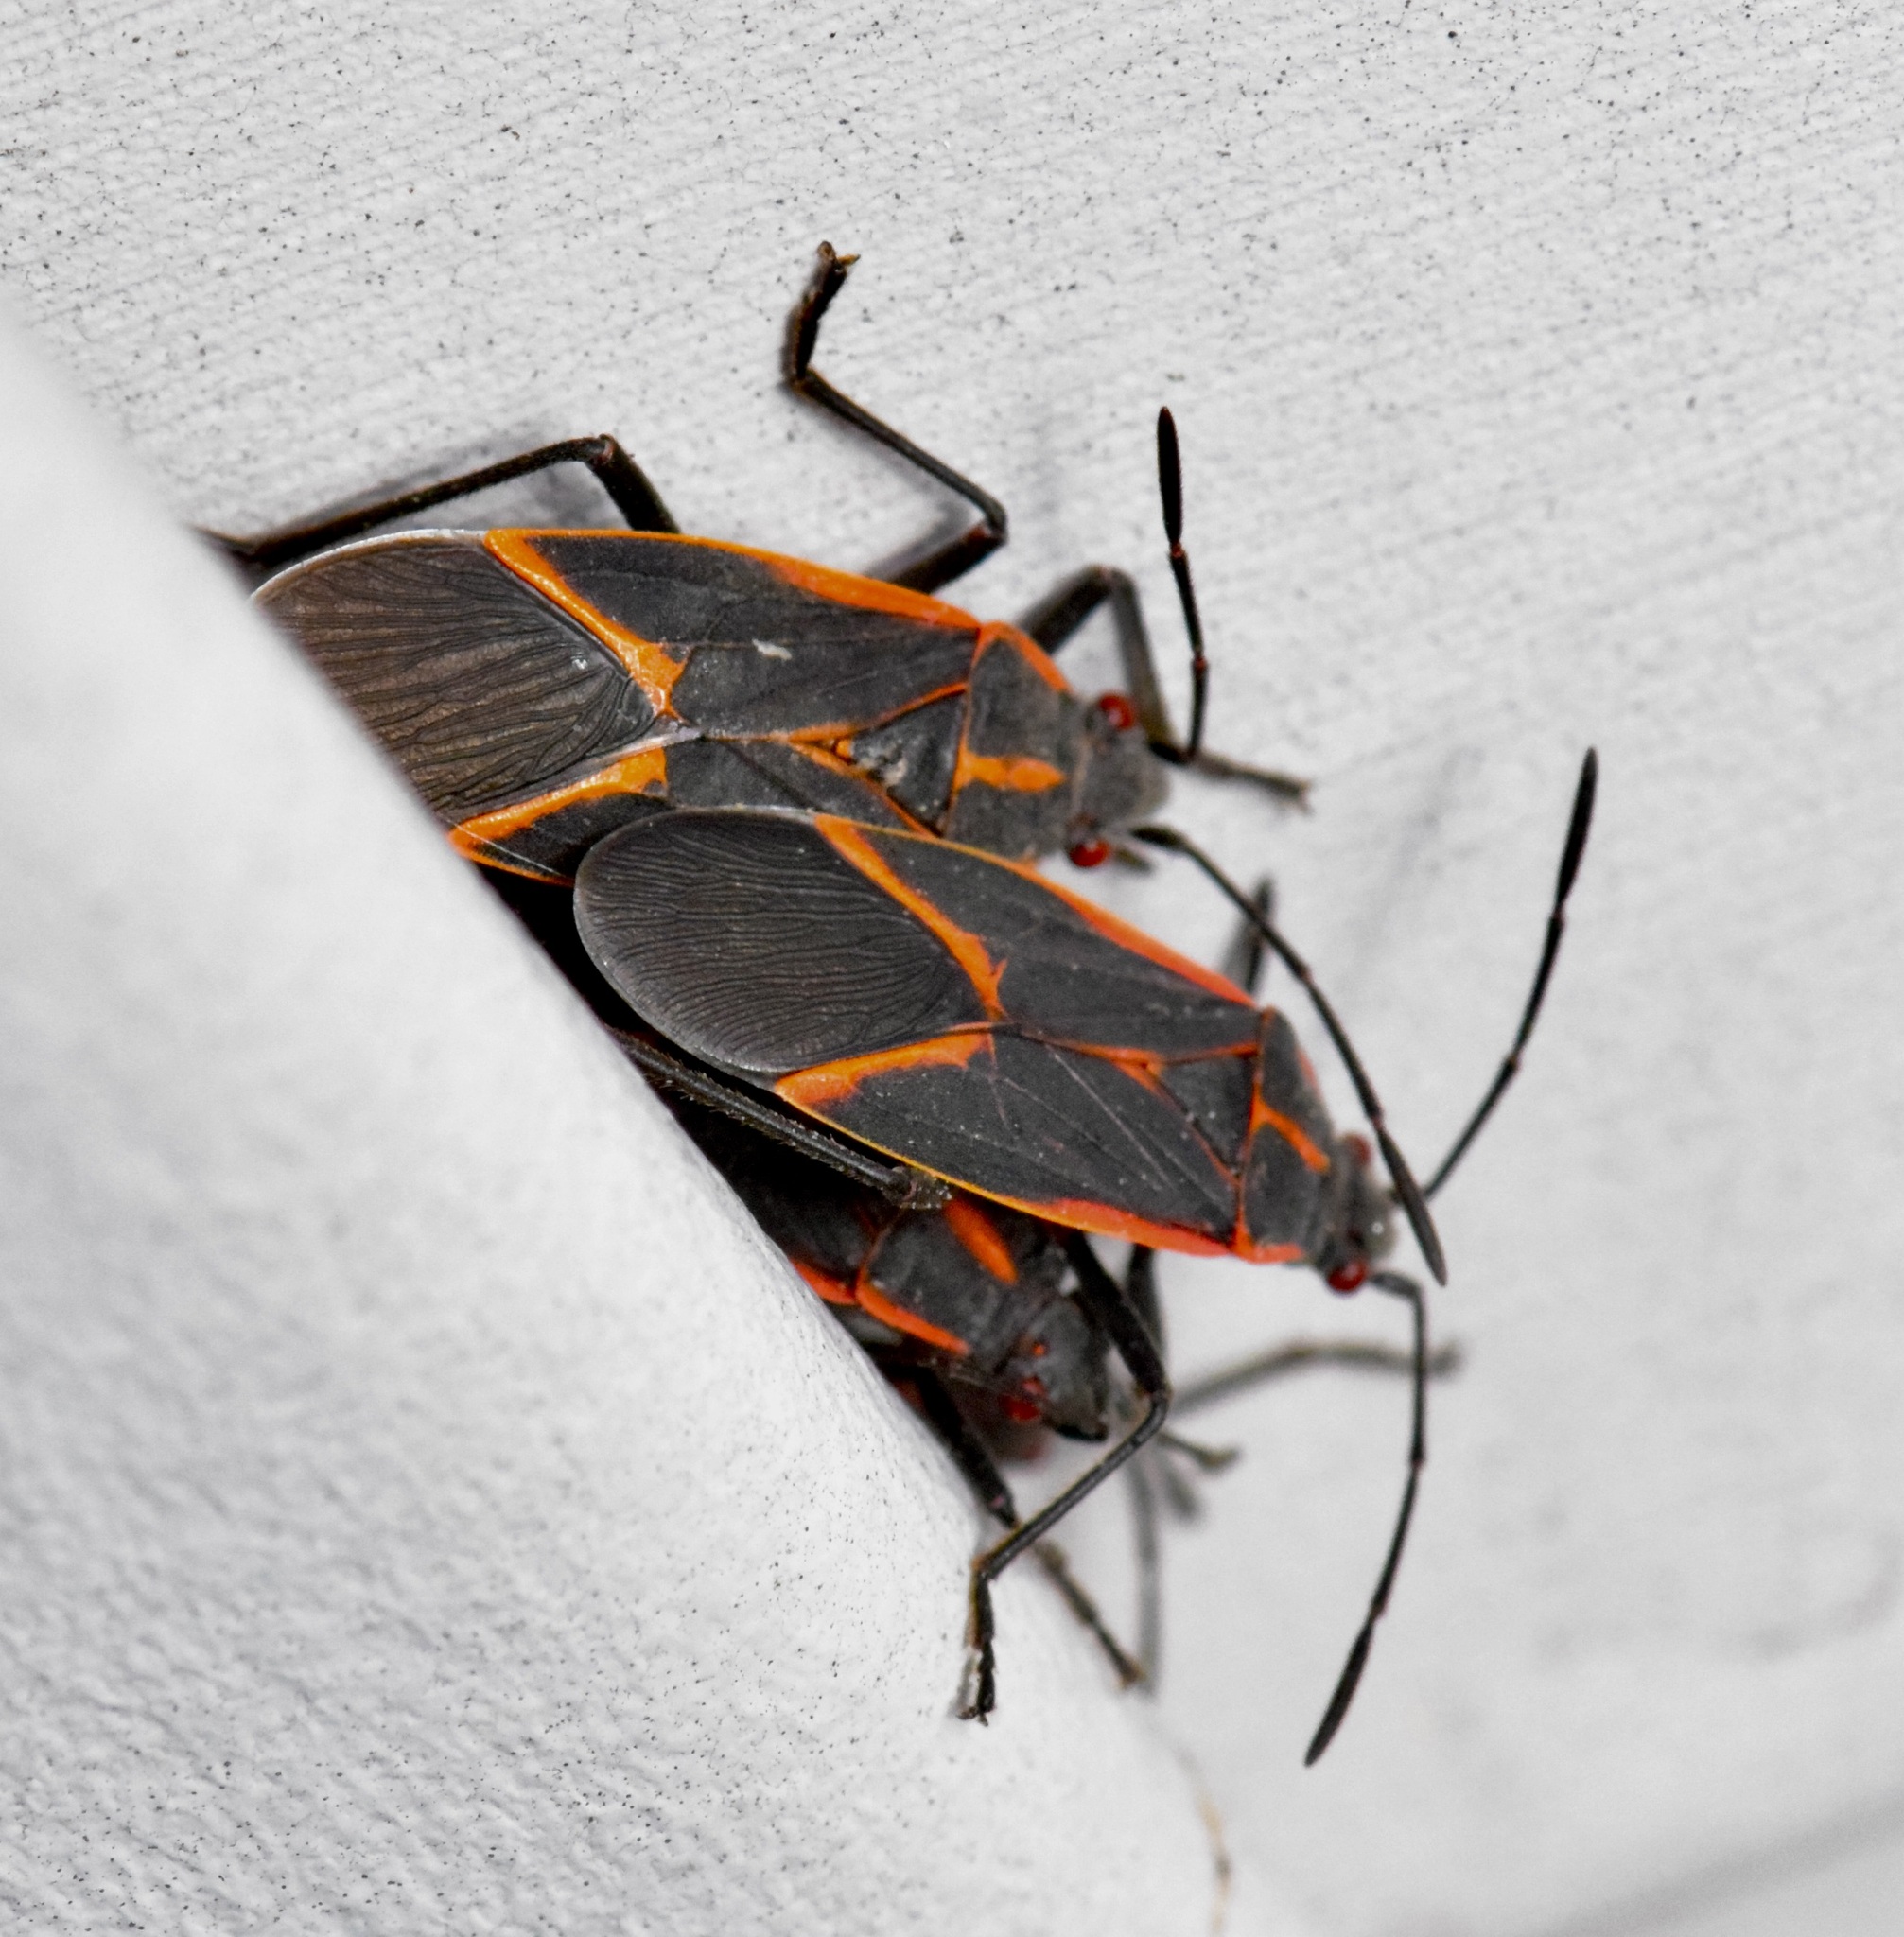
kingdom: Animalia
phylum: Arthropoda
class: Insecta
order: Hemiptera
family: Rhopalidae
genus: Boisea
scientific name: Boisea trivittata
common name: Boxelder bug
